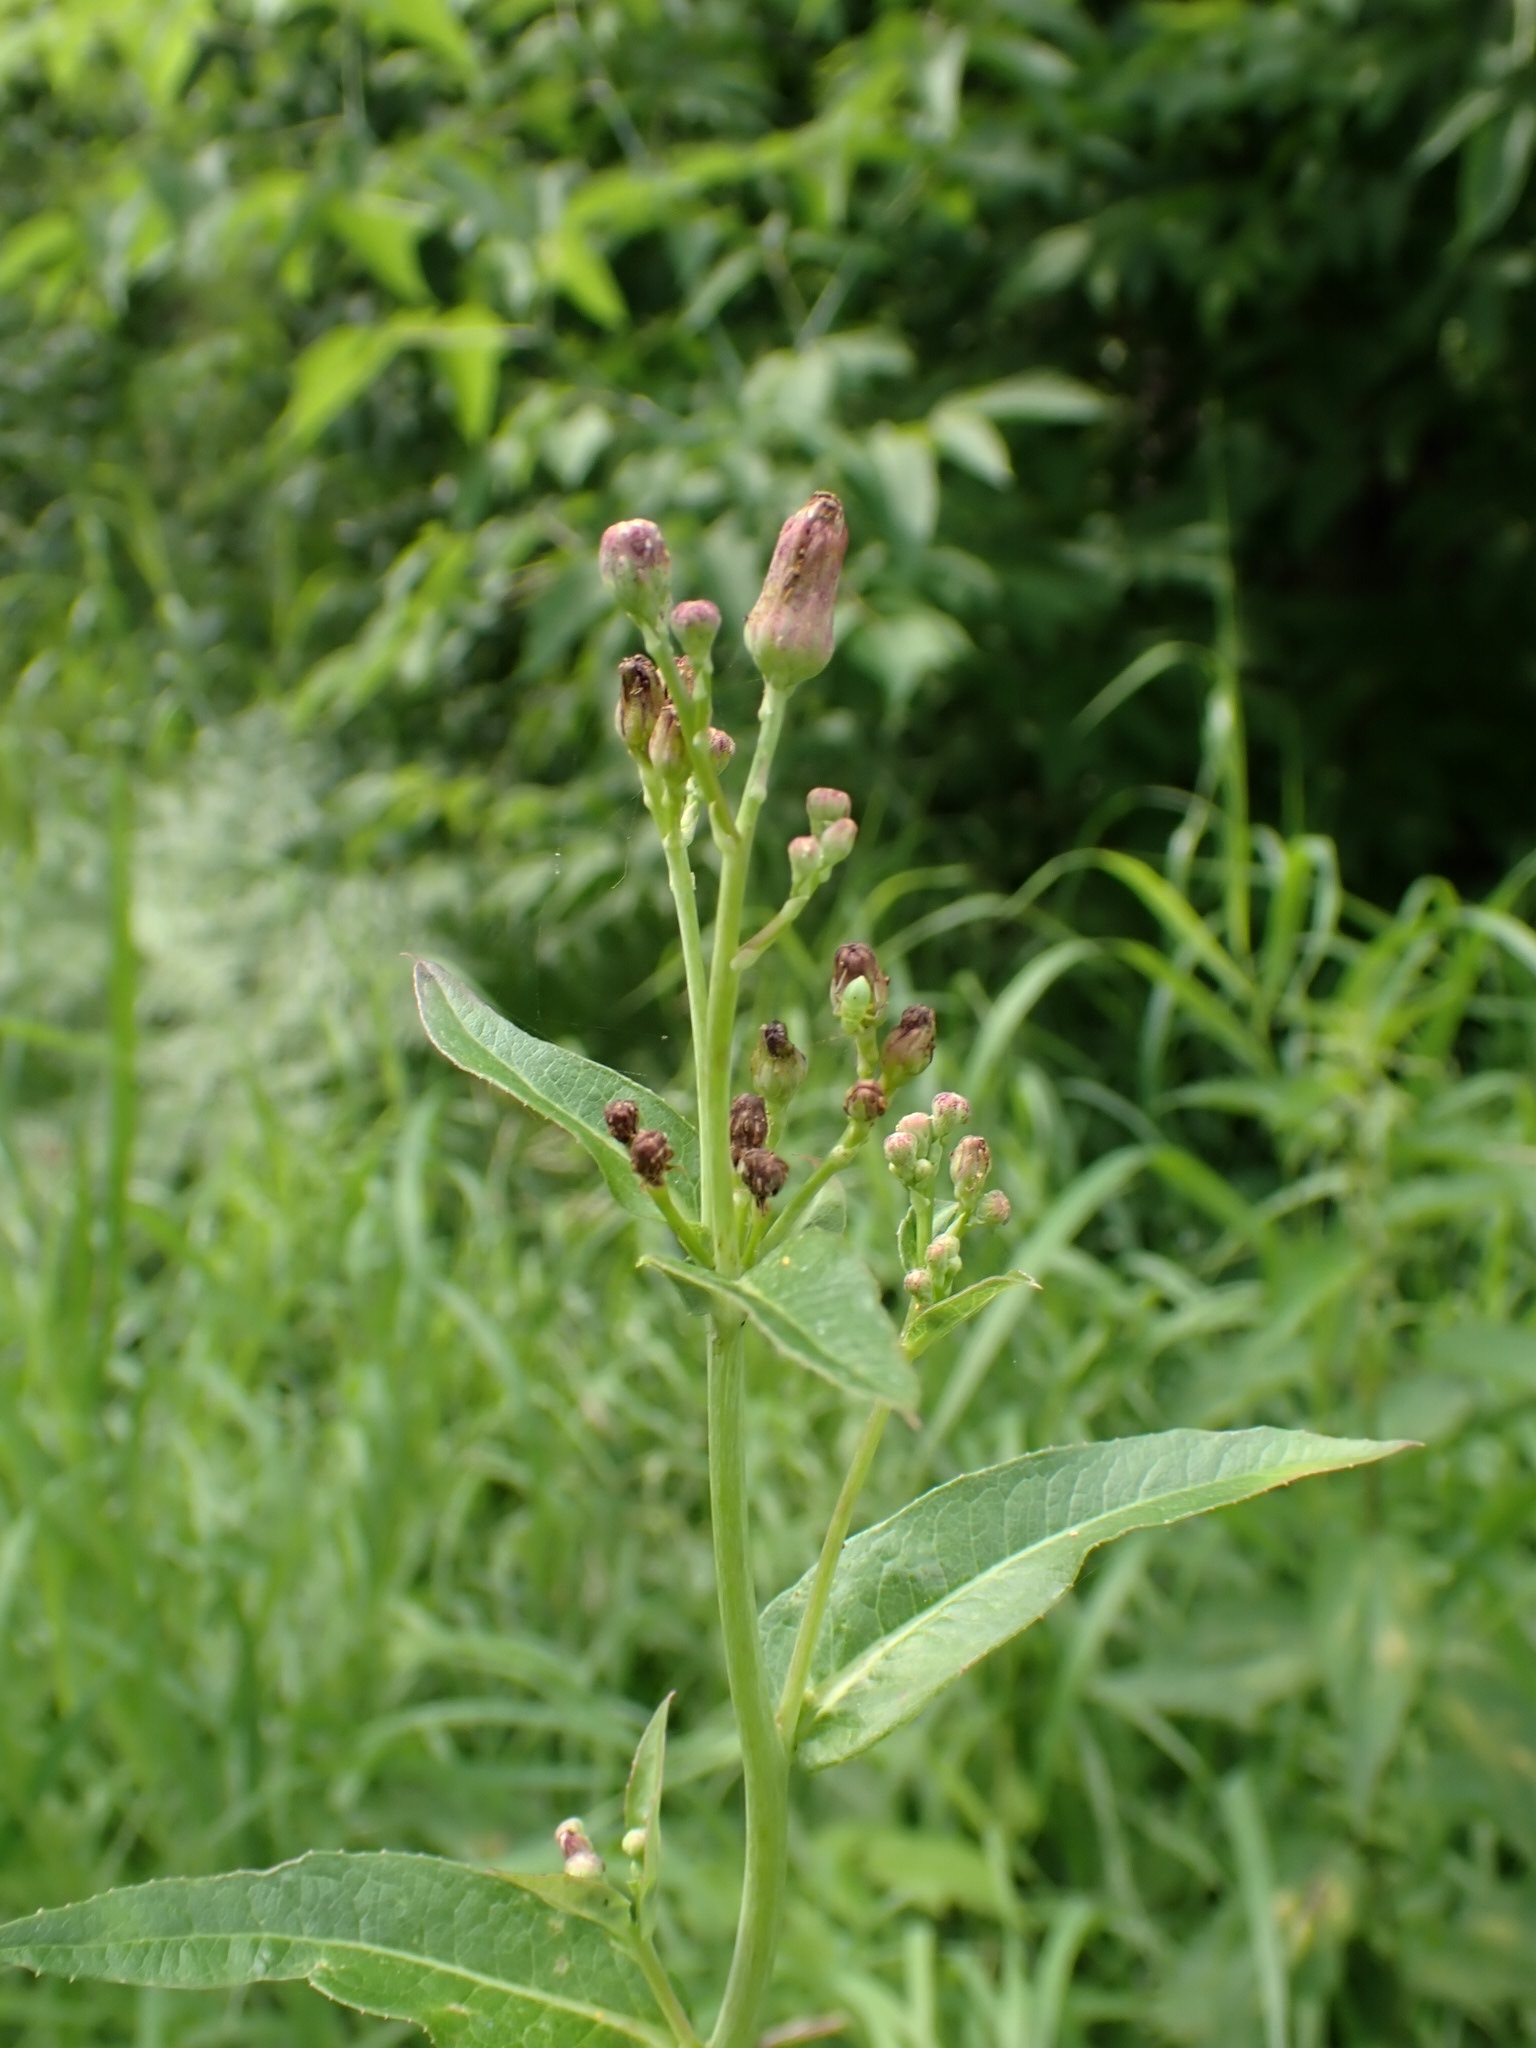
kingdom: Plantae
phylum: Tracheophyta
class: Magnoliopsida
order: Asterales
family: Asteraceae
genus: Lactuca
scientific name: Lactuca sibirica
